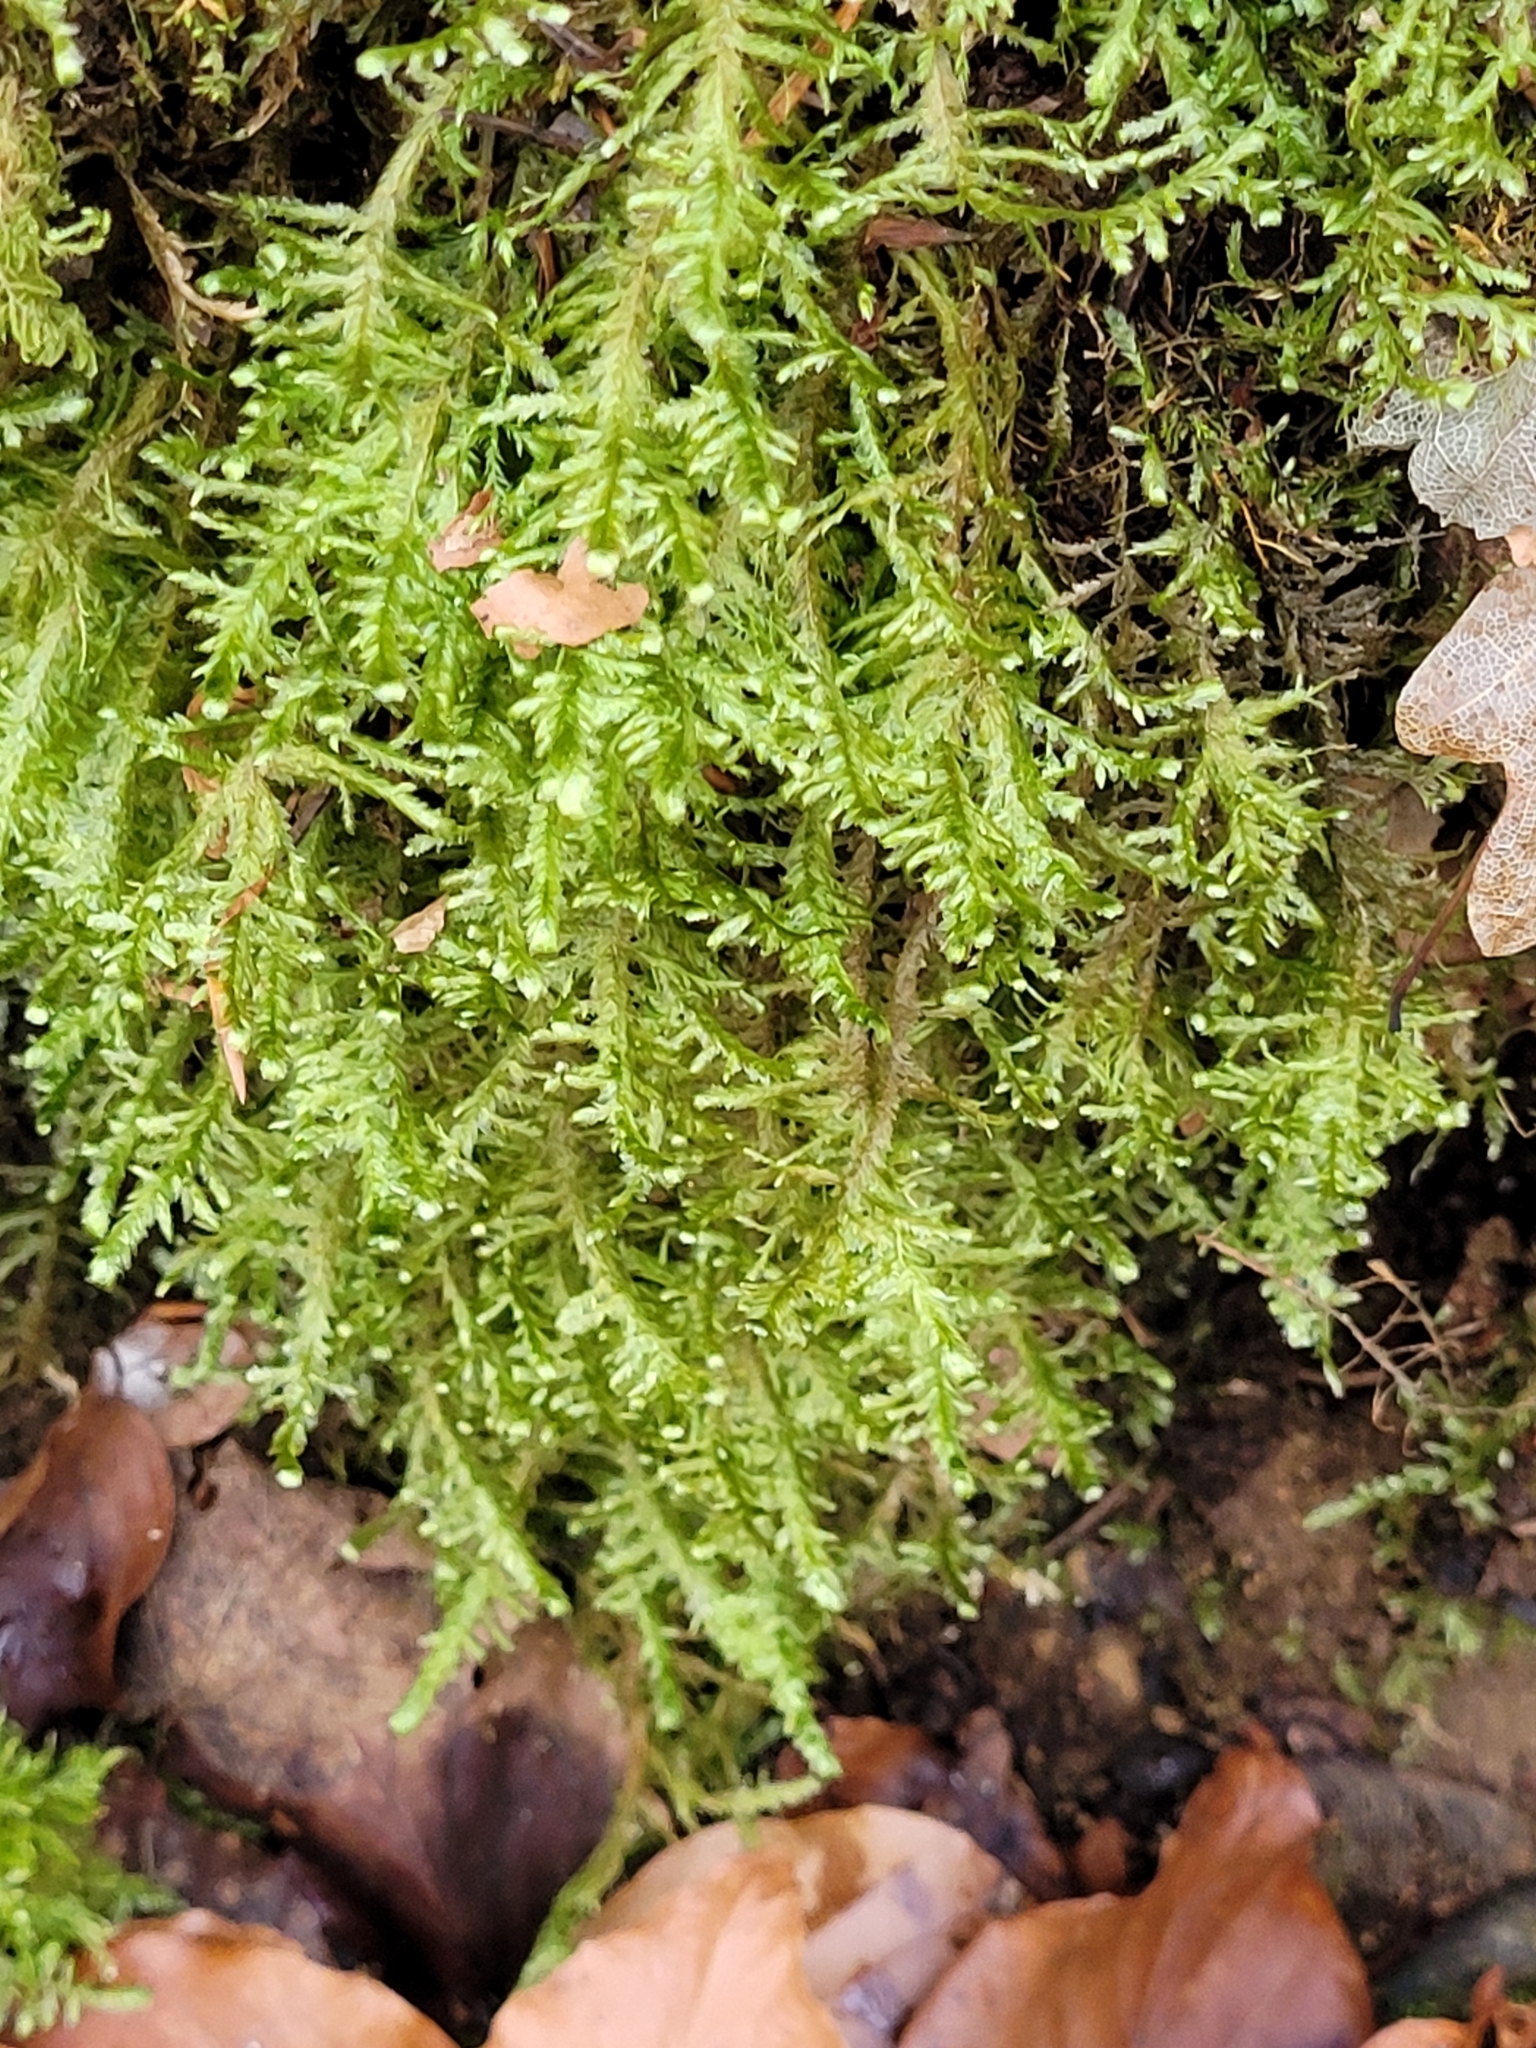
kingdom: Plantae
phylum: Bryophyta
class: Bryopsida
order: Hypnales
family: Neckeraceae
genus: Alleniella
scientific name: Alleniella complanata
